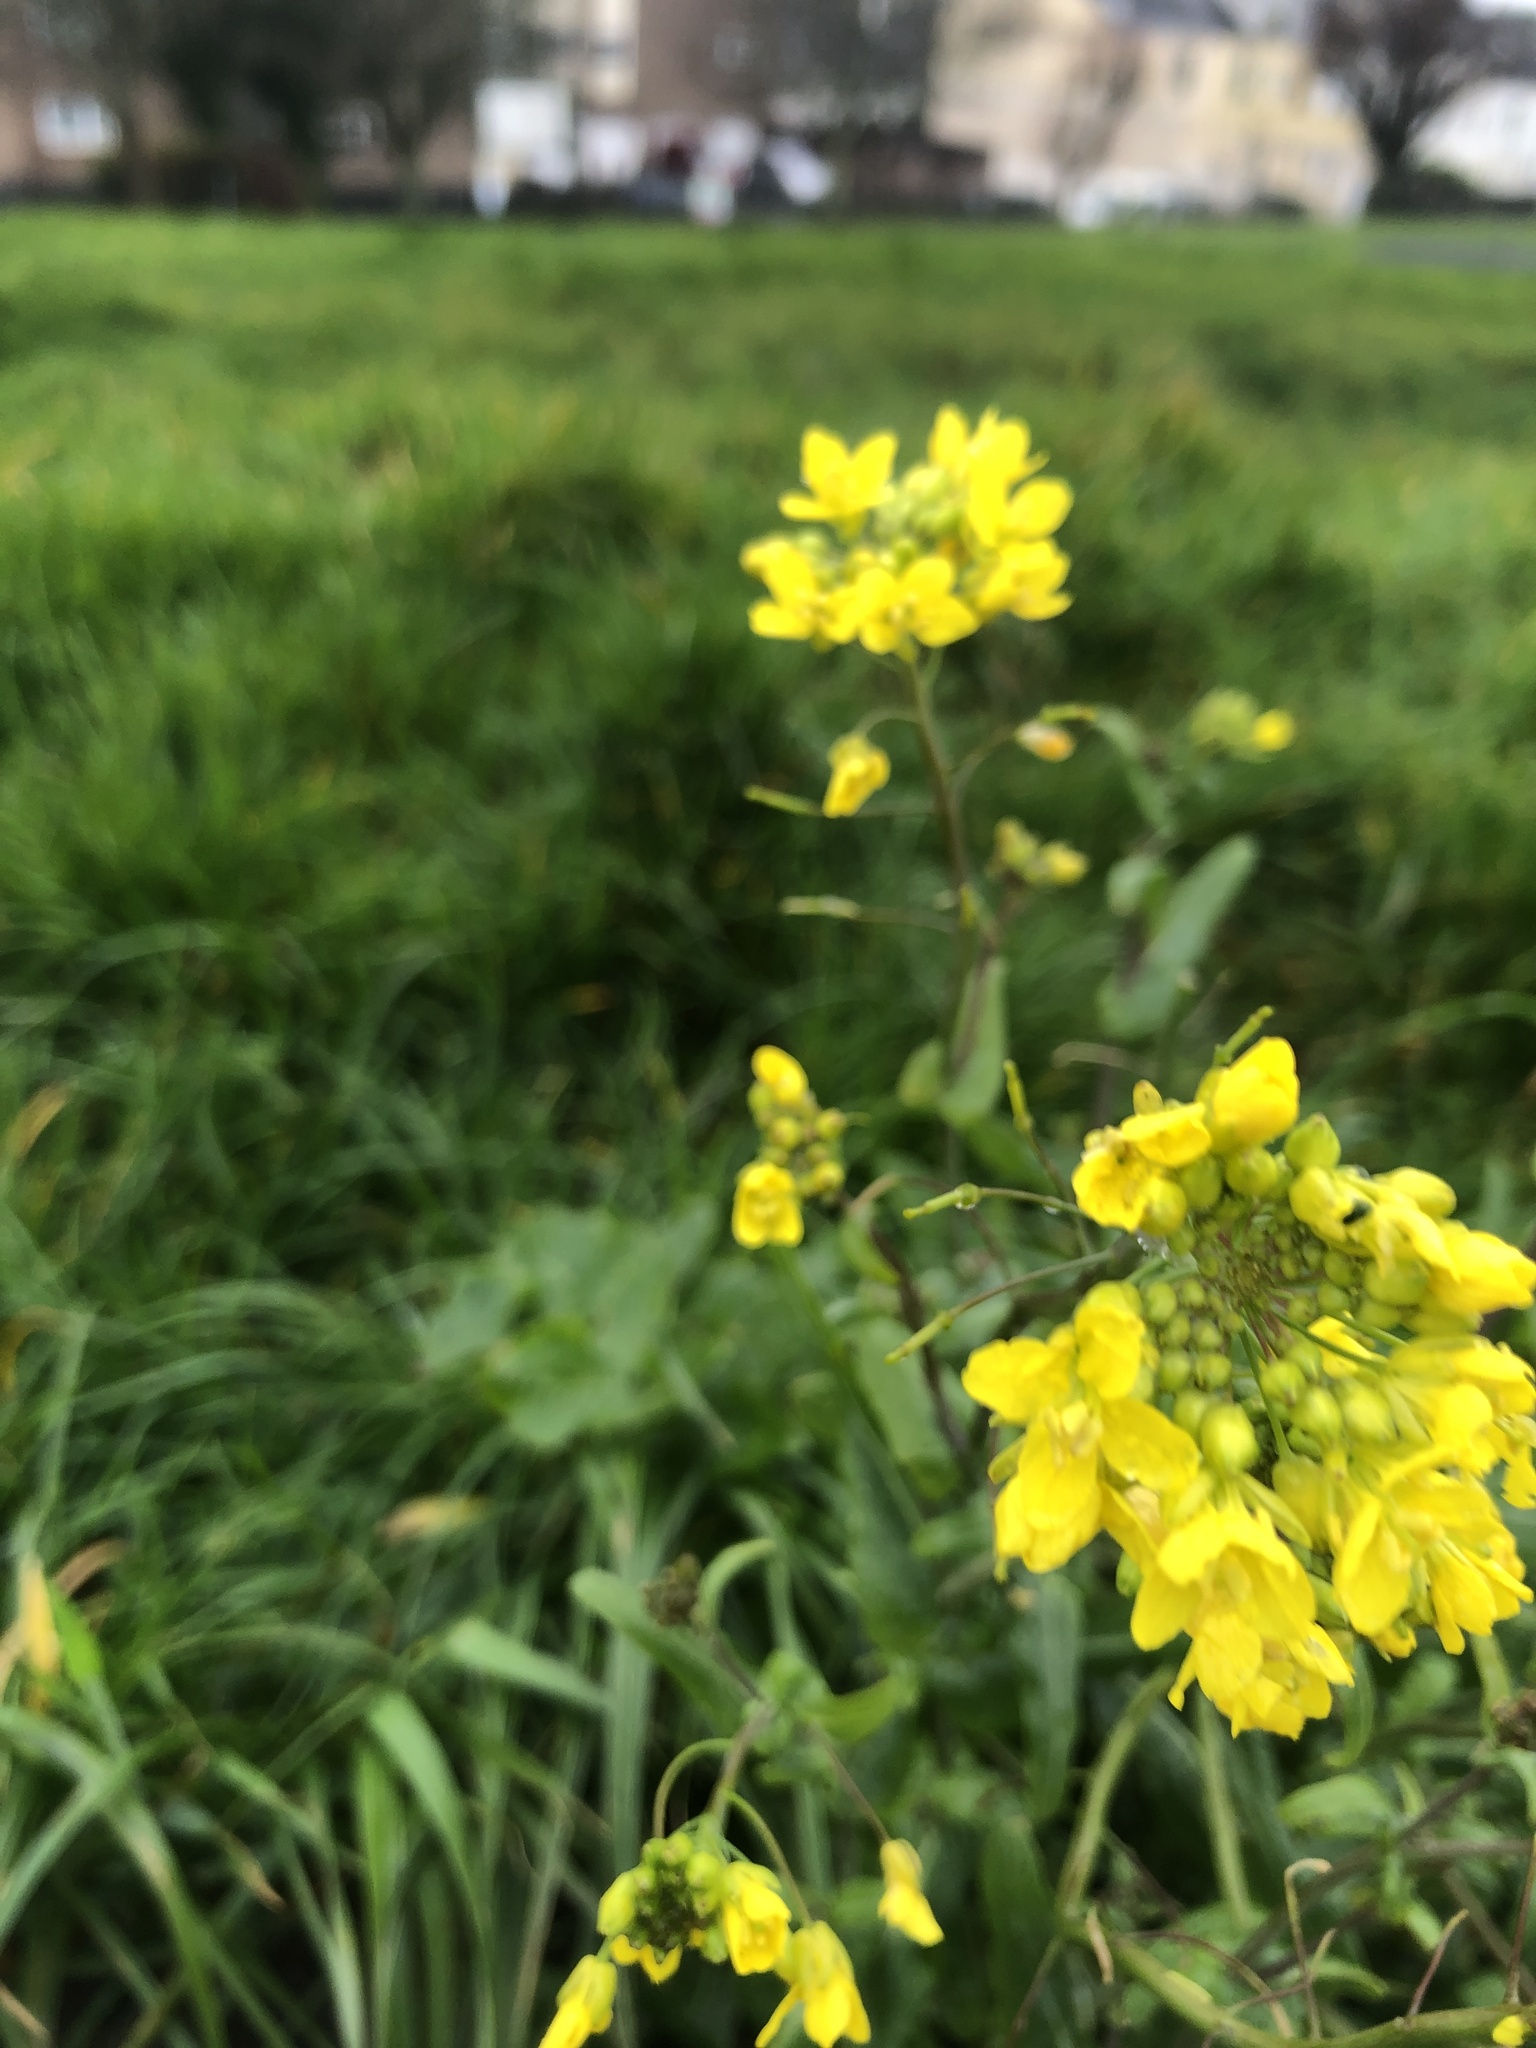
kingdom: Plantae
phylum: Tracheophyta
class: Magnoliopsida
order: Brassicales
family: Brassicaceae
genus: Brassica
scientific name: Brassica napus
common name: Rape
